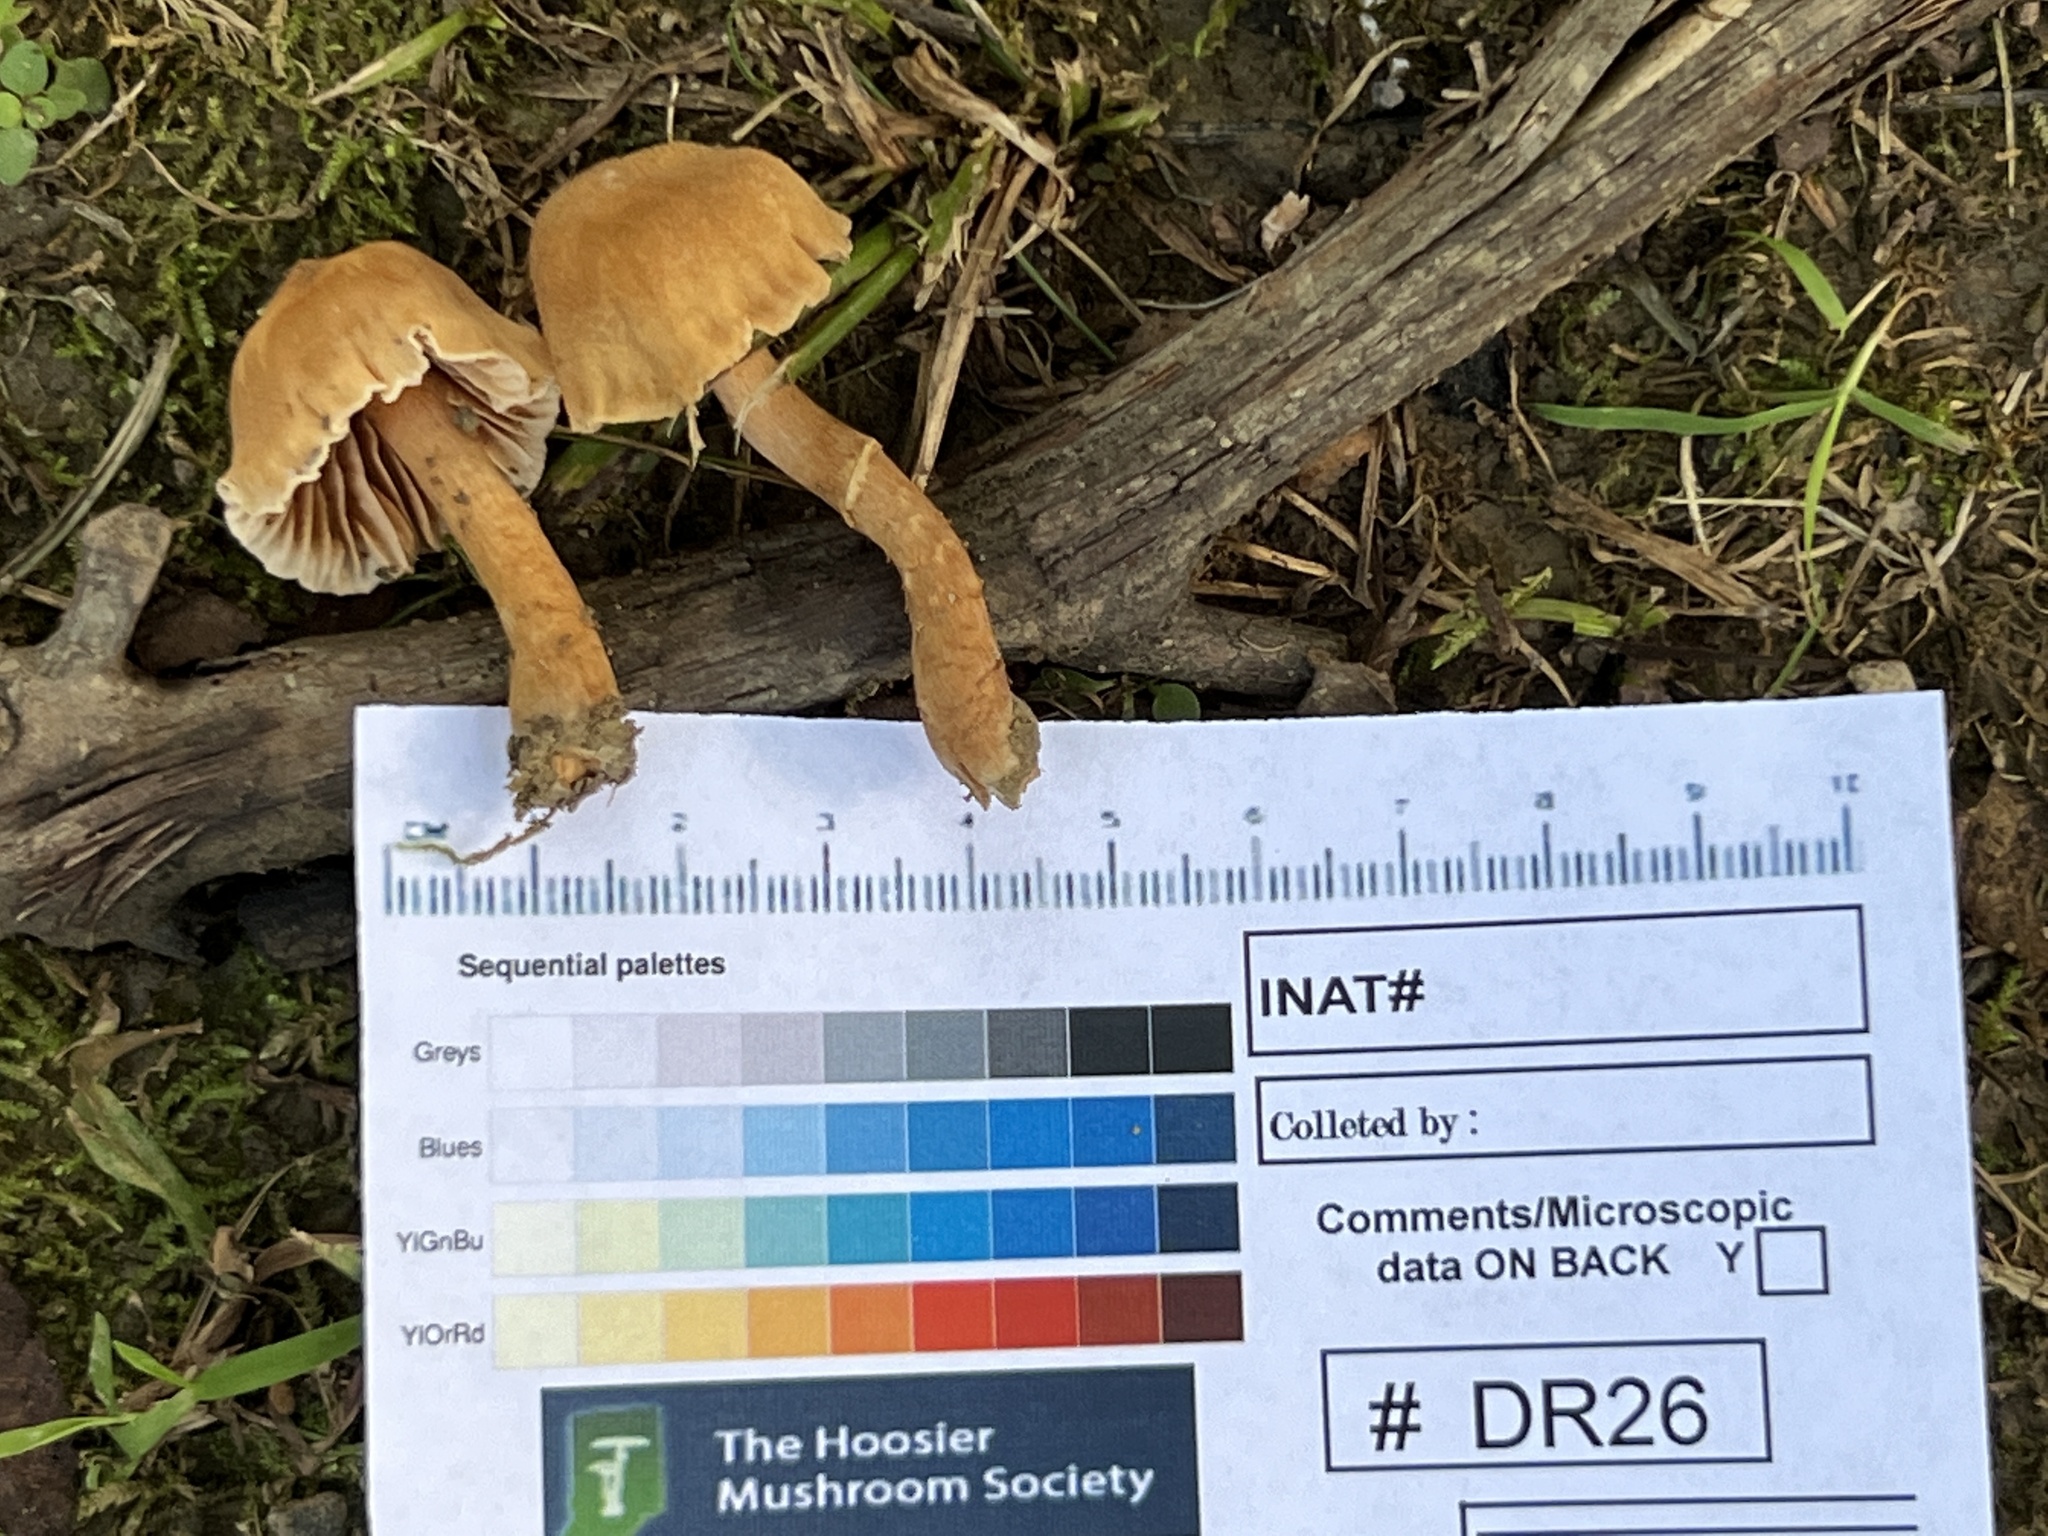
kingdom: Fungi
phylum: Basidiomycota
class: Agaricomycetes
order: Agaricales
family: Cortinariaceae
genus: Cortinarius
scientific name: Cortinarius
